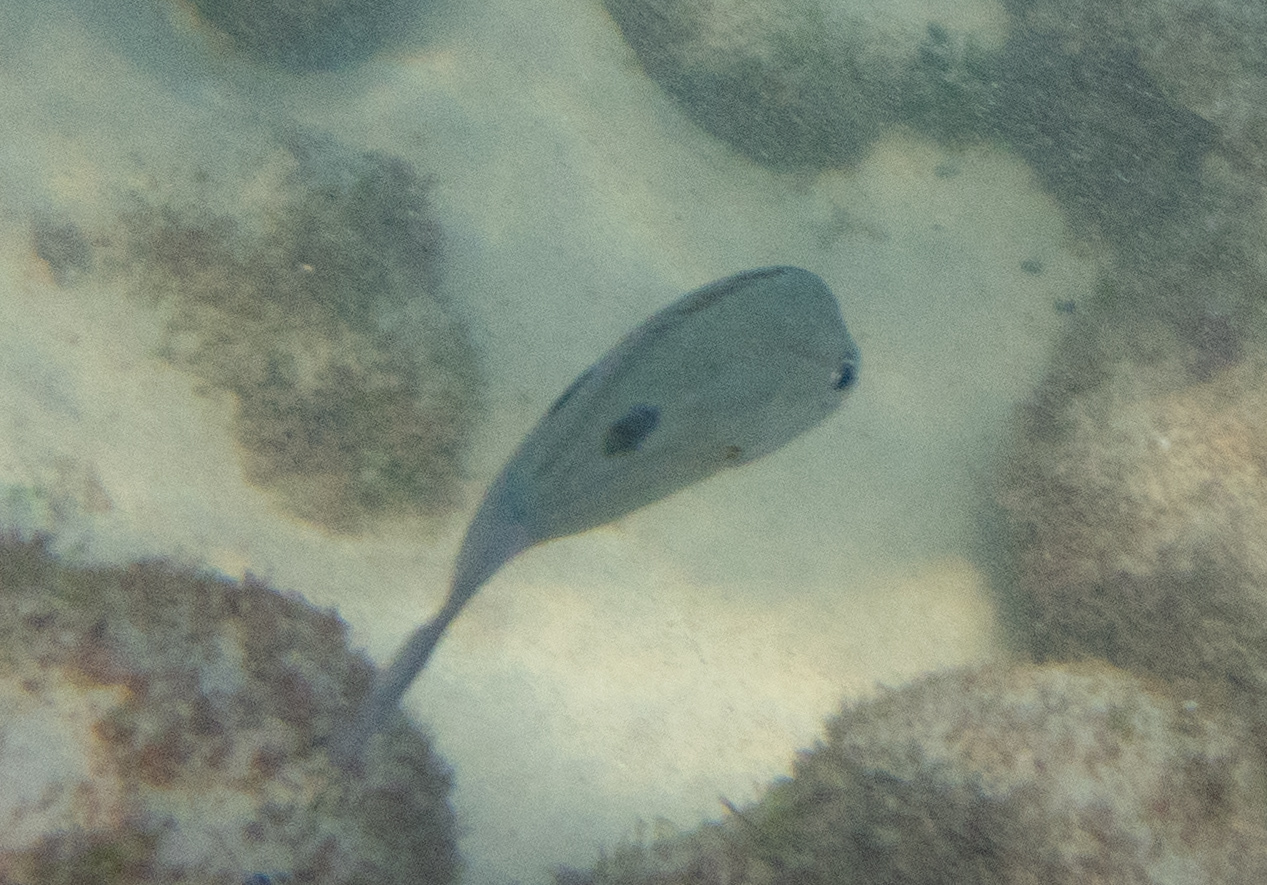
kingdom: Animalia
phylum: Chordata
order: Perciformes
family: Lutjanidae
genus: Lutjanus
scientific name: Lutjanus russellii
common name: Russell's snapper
